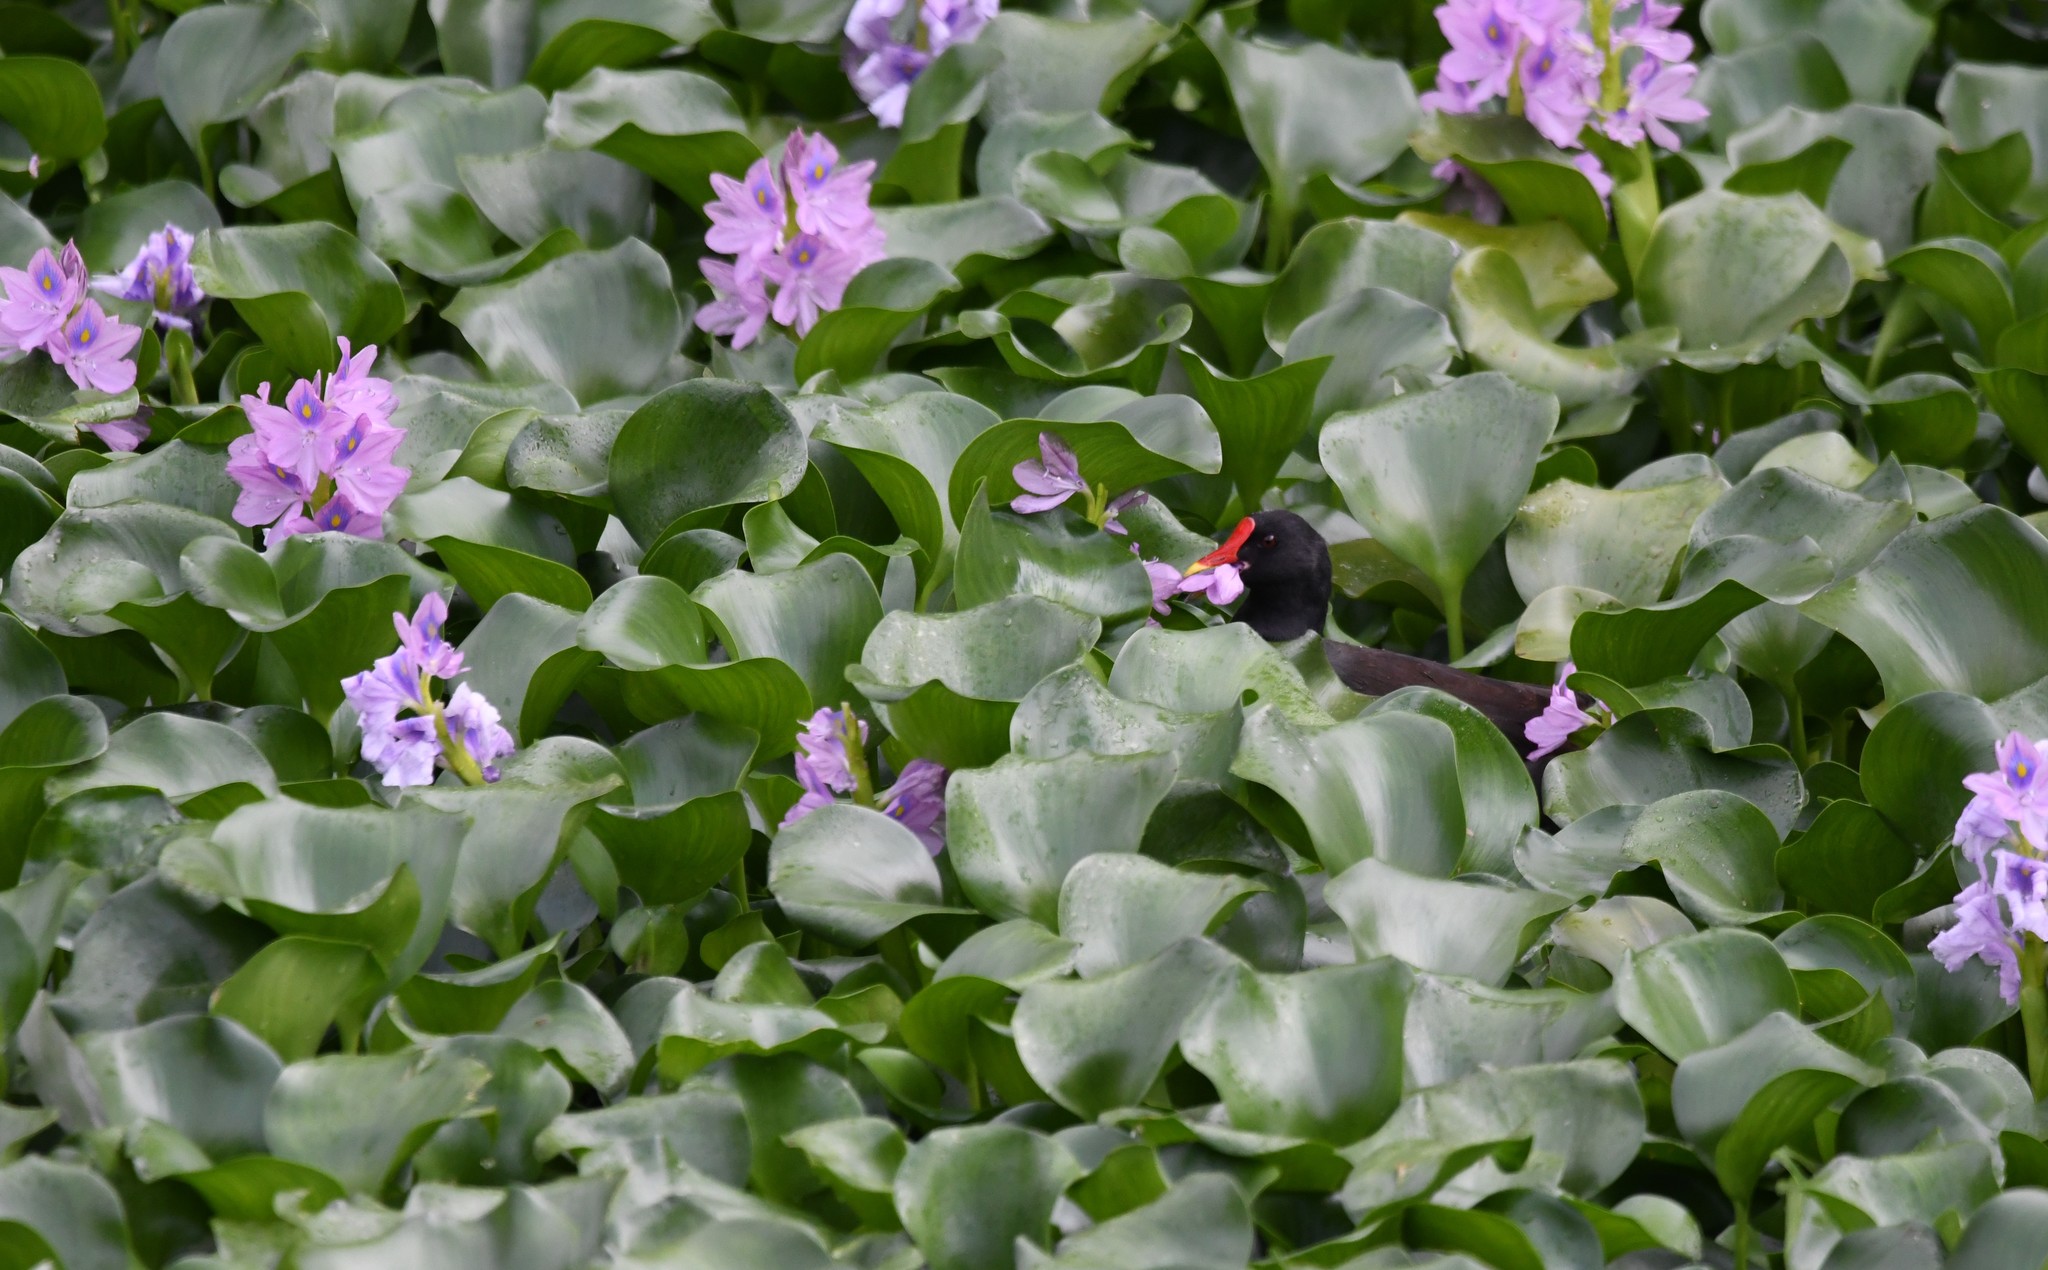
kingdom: Plantae
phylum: Tracheophyta
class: Liliopsida
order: Commelinales
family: Pontederiaceae
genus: Pontederia
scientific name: Pontederia crassipes
